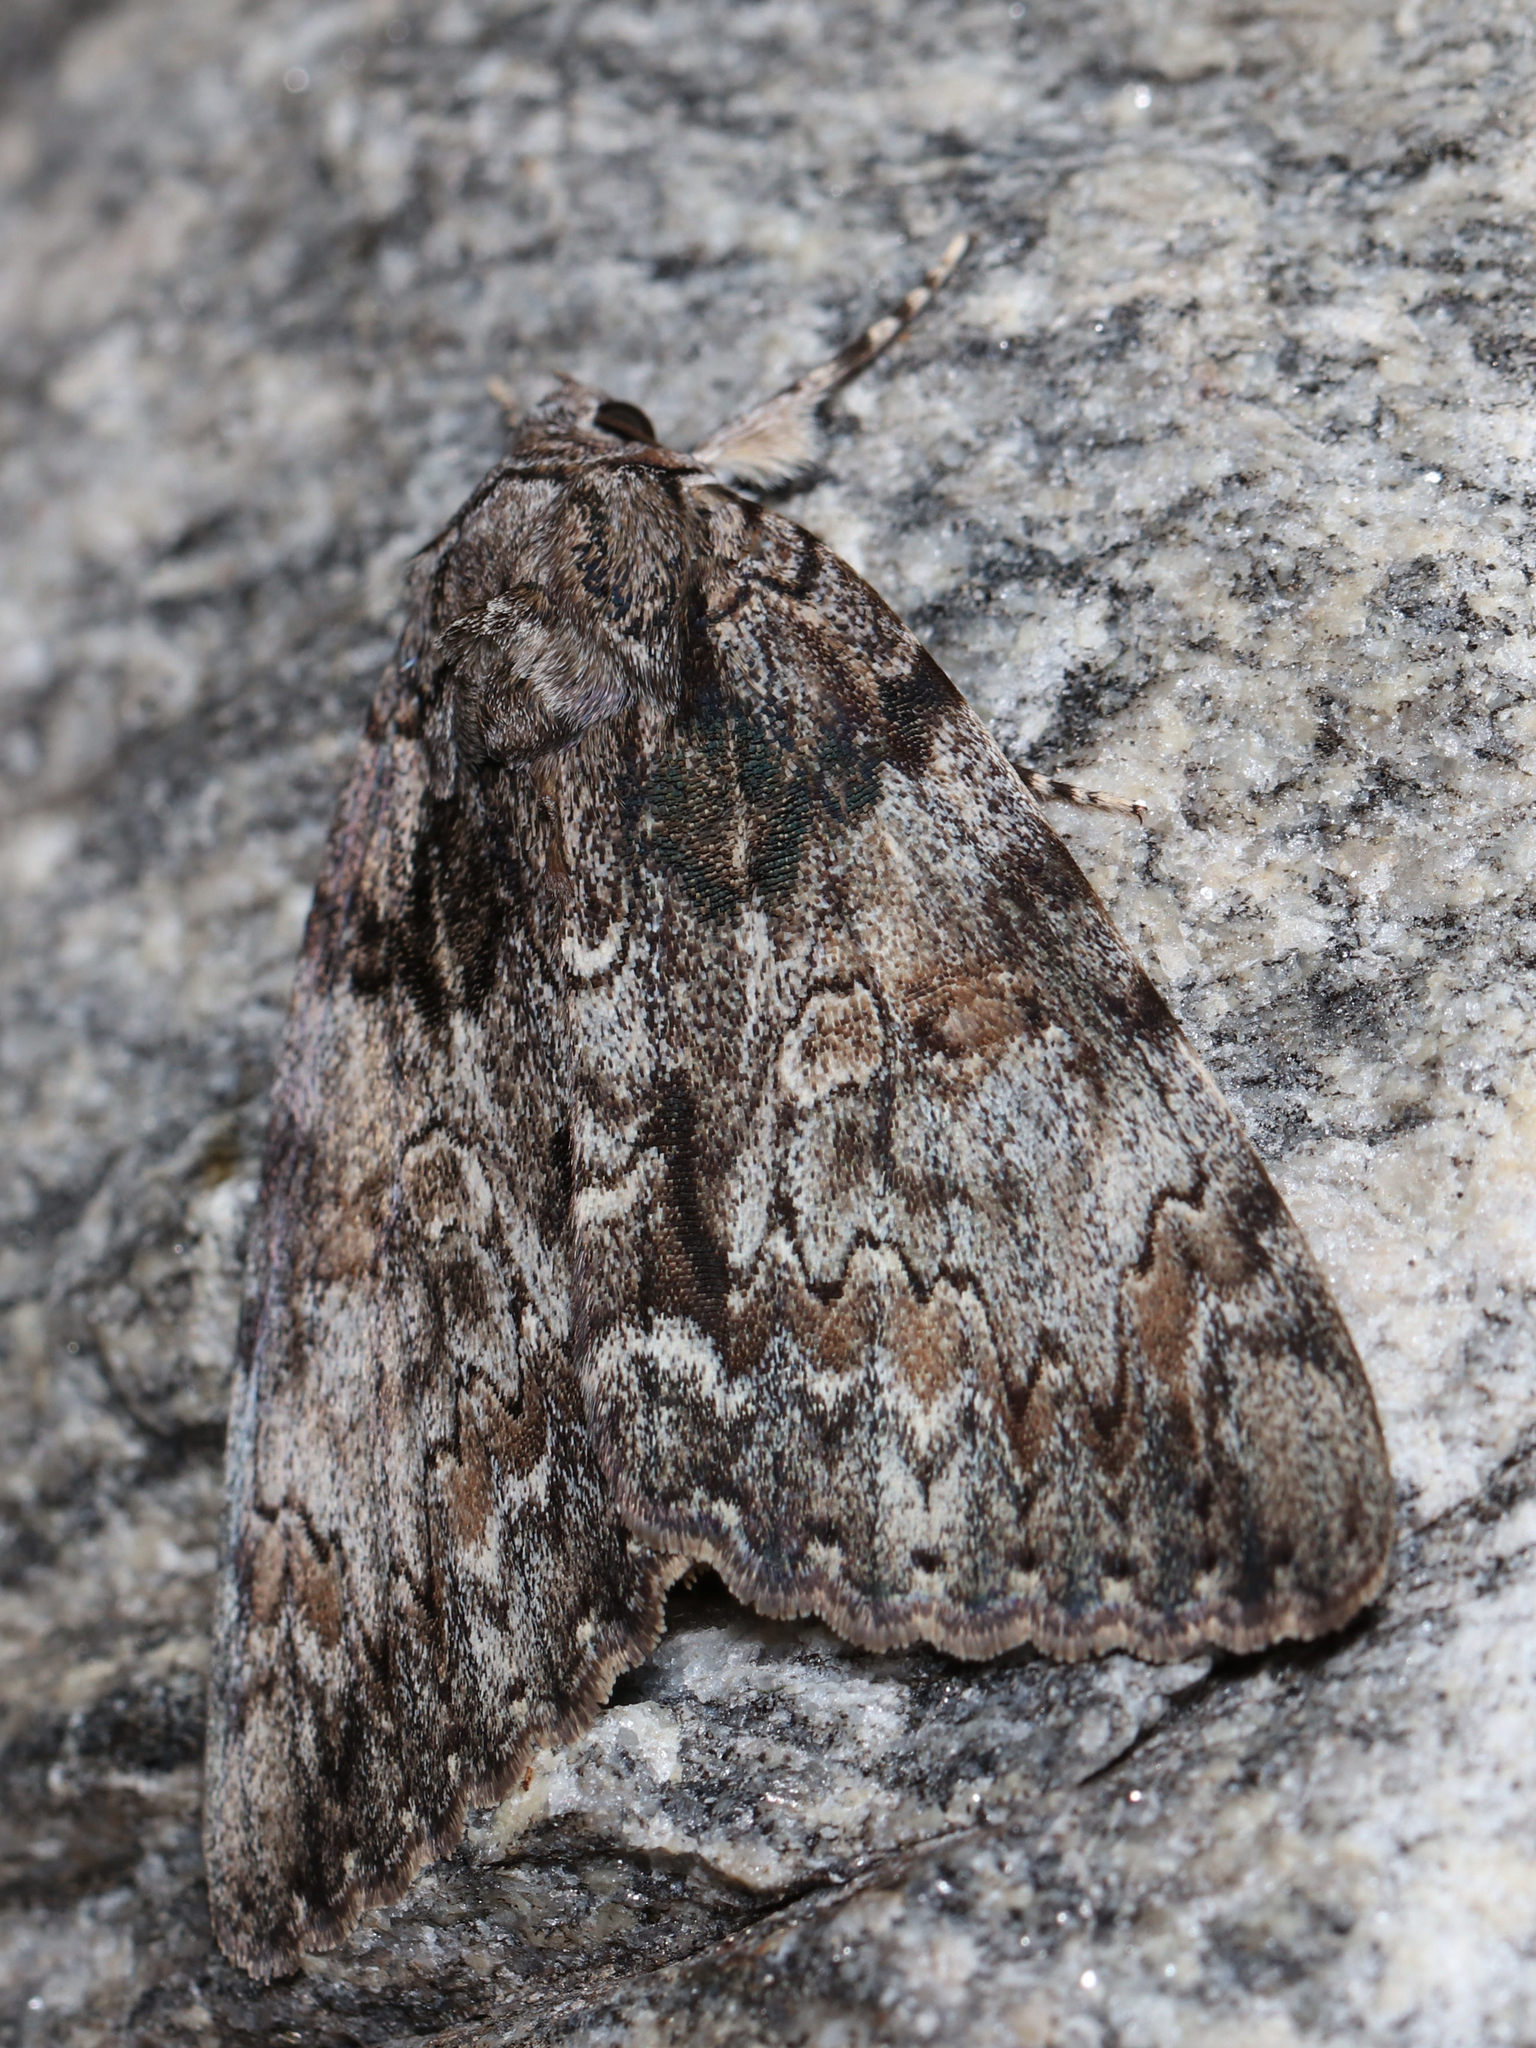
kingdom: Animalia
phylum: Arthropoda
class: Insecta
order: Lepidoptera
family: Erebidae
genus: Catocala
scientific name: Catocala palaeogama
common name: Oldwife underwing
